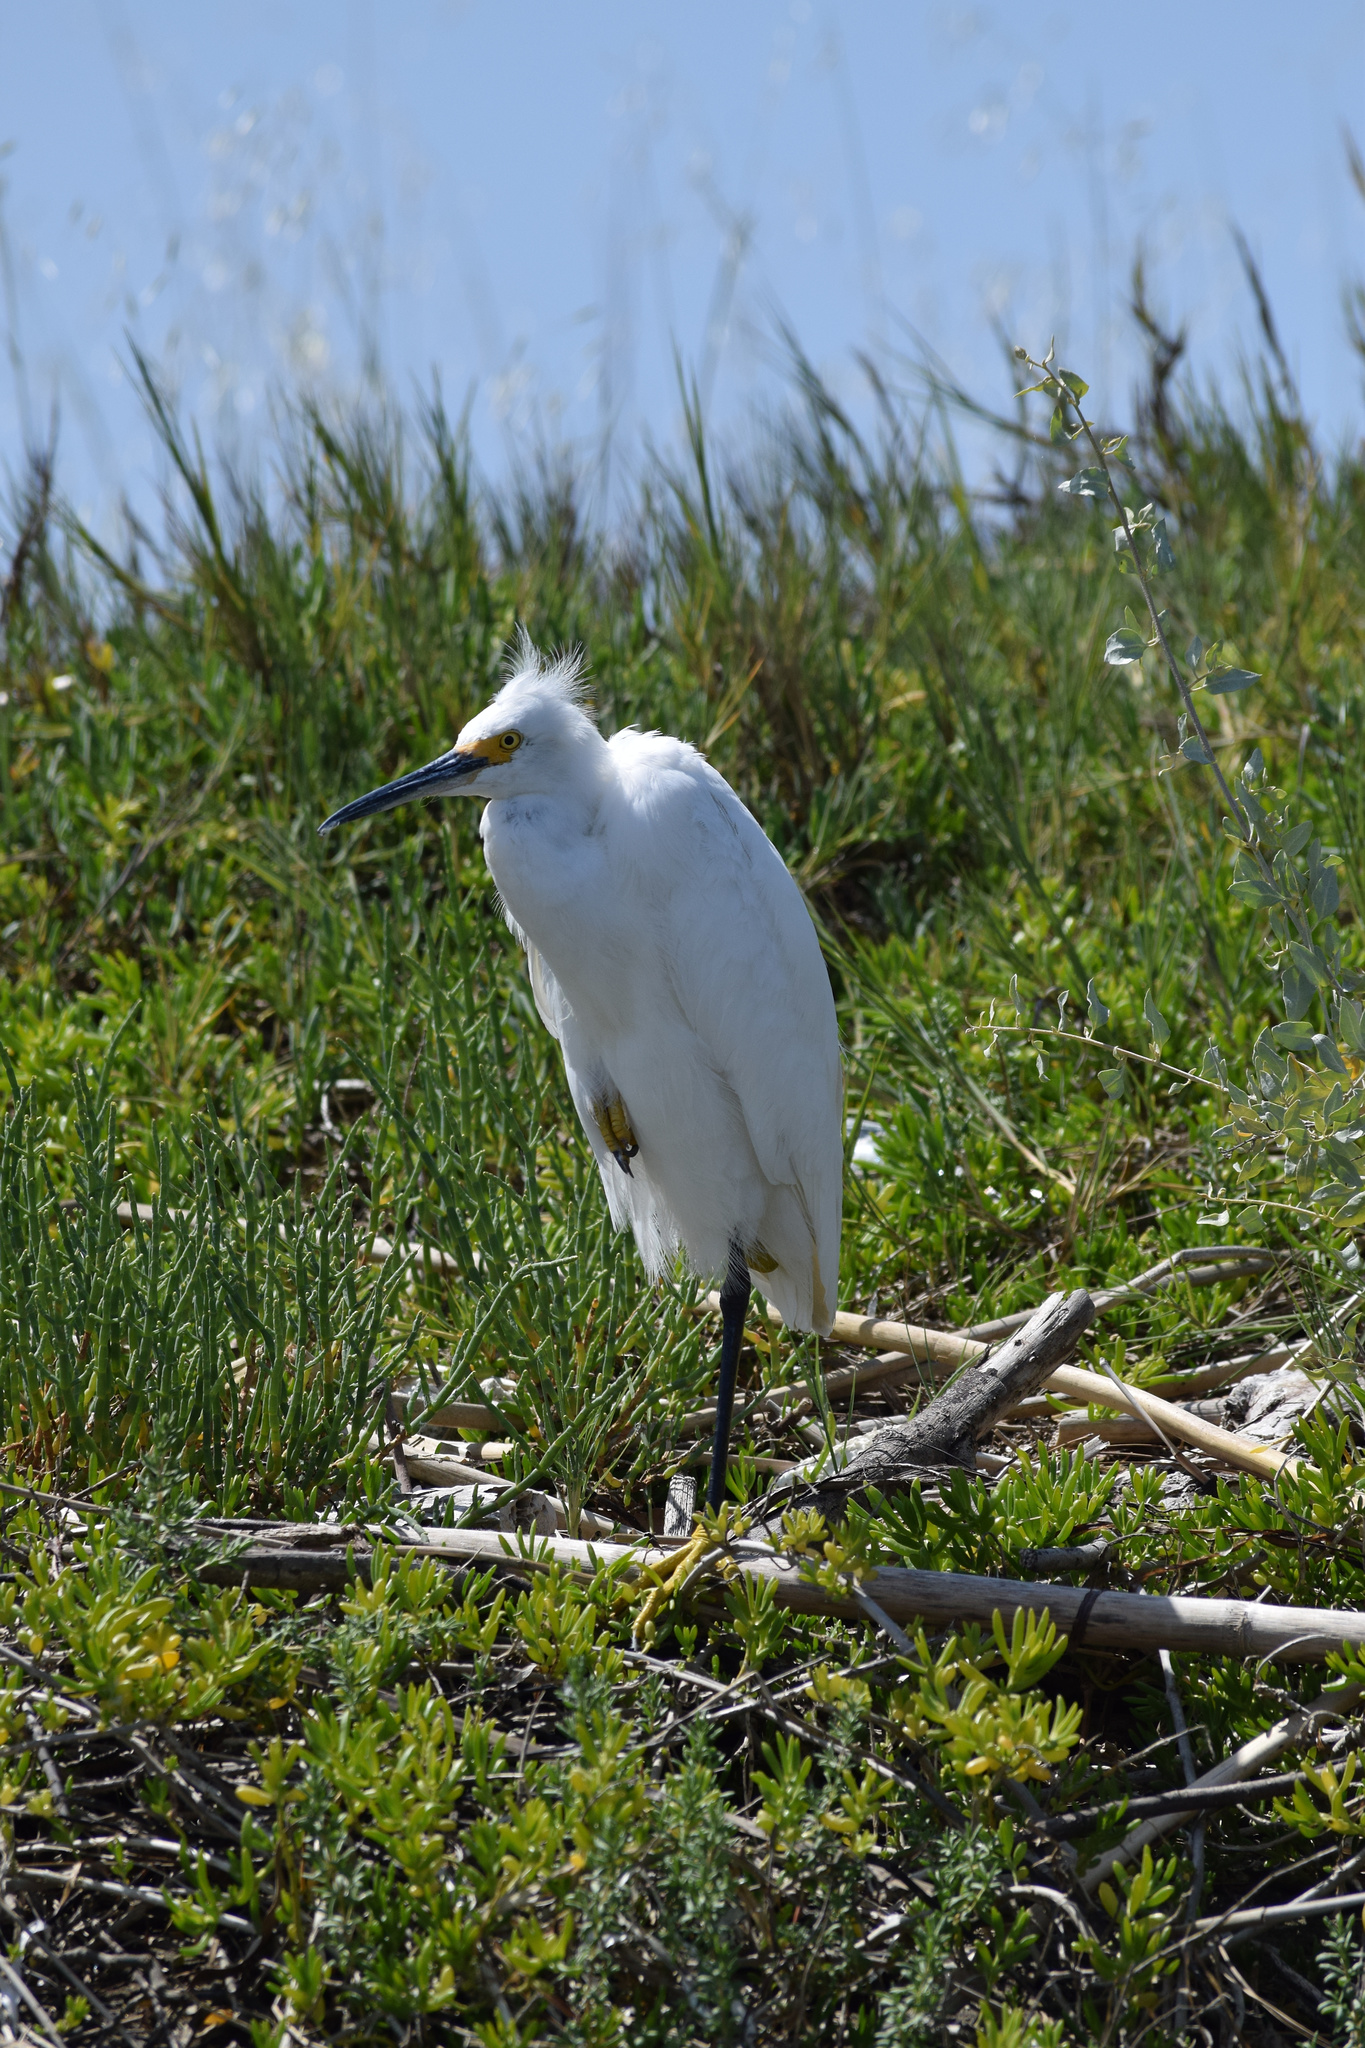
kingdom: Animalia
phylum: Chordata
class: Aves
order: Pelecaniformes
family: Ardeidae
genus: Egretta
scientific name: Egretta thula
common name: Snowy egret
